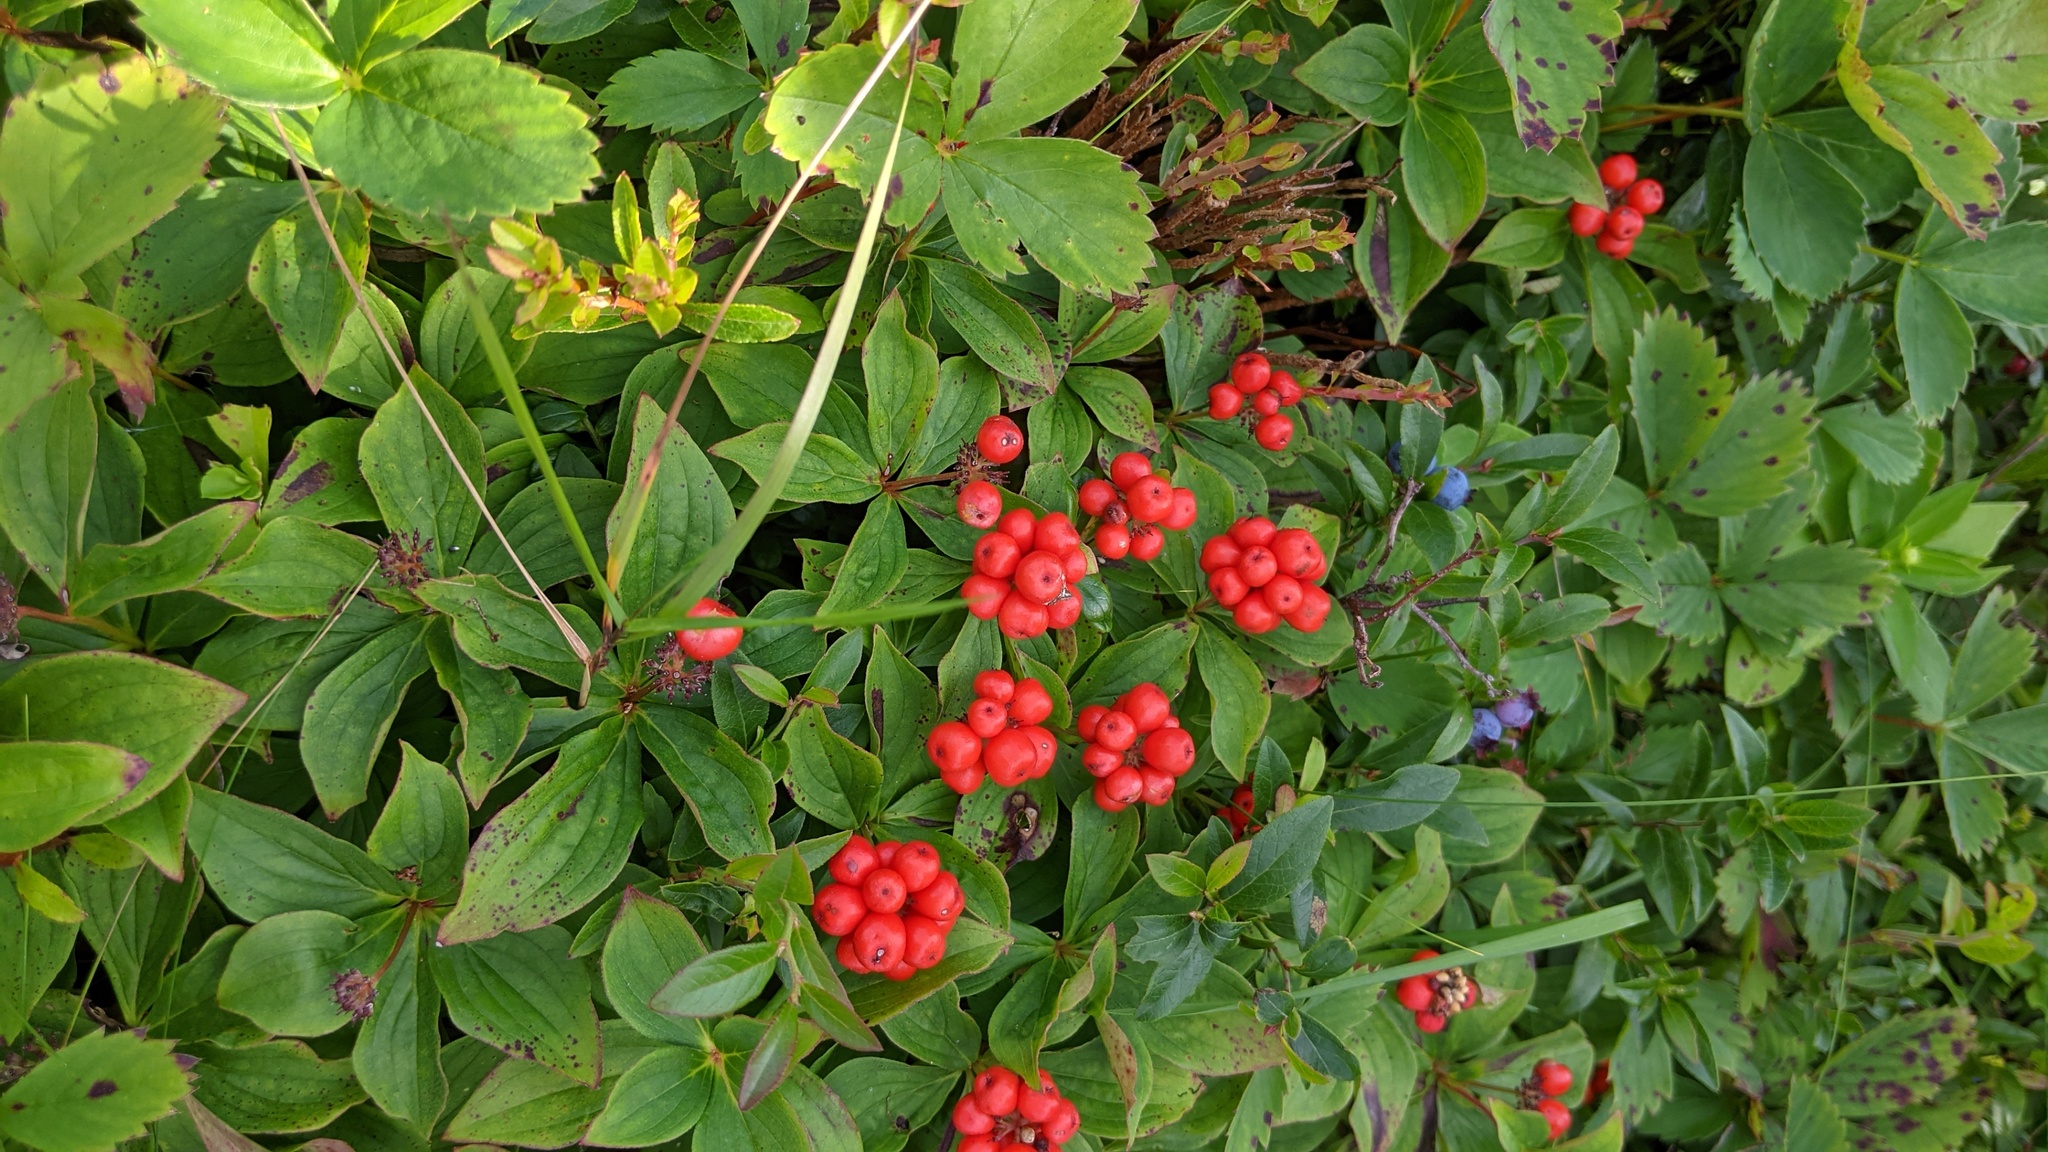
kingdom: Plantae
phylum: Tracheophyta
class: Magnoliopsida
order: Cornales
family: Cornaceae
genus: Cornus
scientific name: Cornus canadensis
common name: Creeping dogwood
